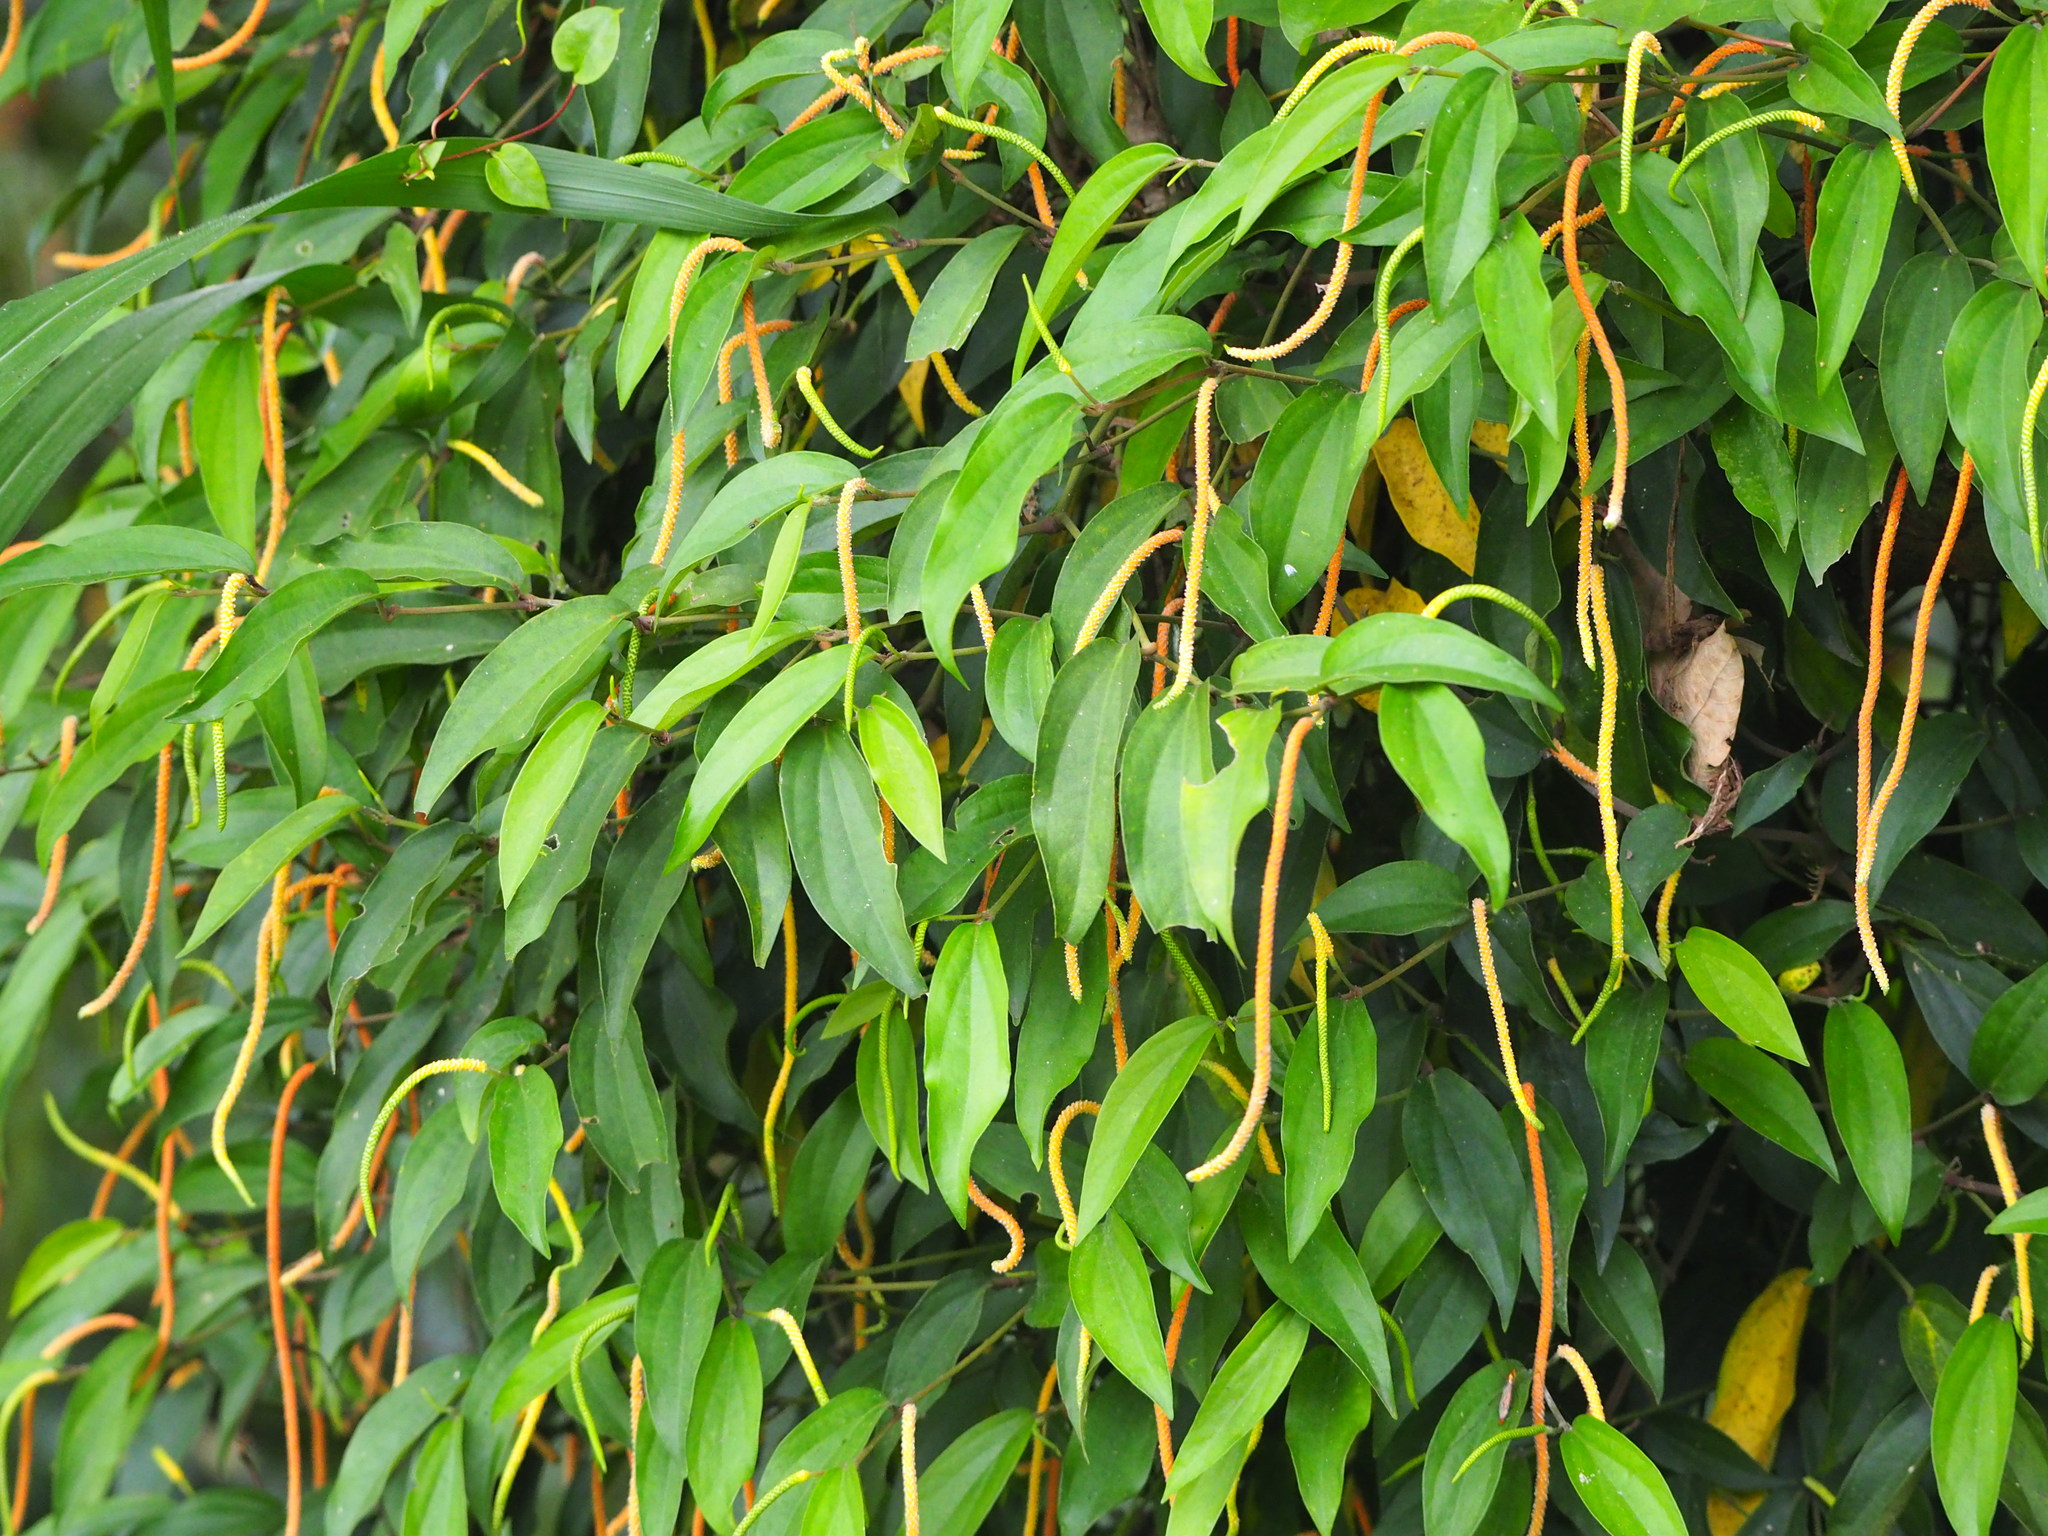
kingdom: Plantae
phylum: Tracheophyta
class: Magnoliopsida
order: Piperales
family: Piperaceae
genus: Piper
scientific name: Piper taiwanense
